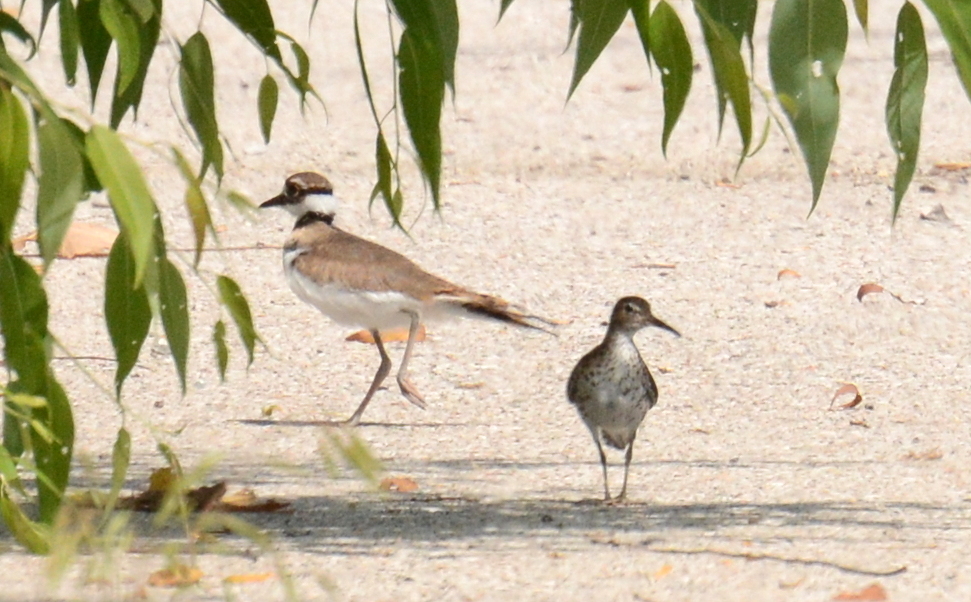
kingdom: Animalia
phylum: Chordata
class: Aves
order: Charadriiformes
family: Charadriidae
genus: Charadrius
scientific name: Charadrius vociferus
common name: Killdeer
